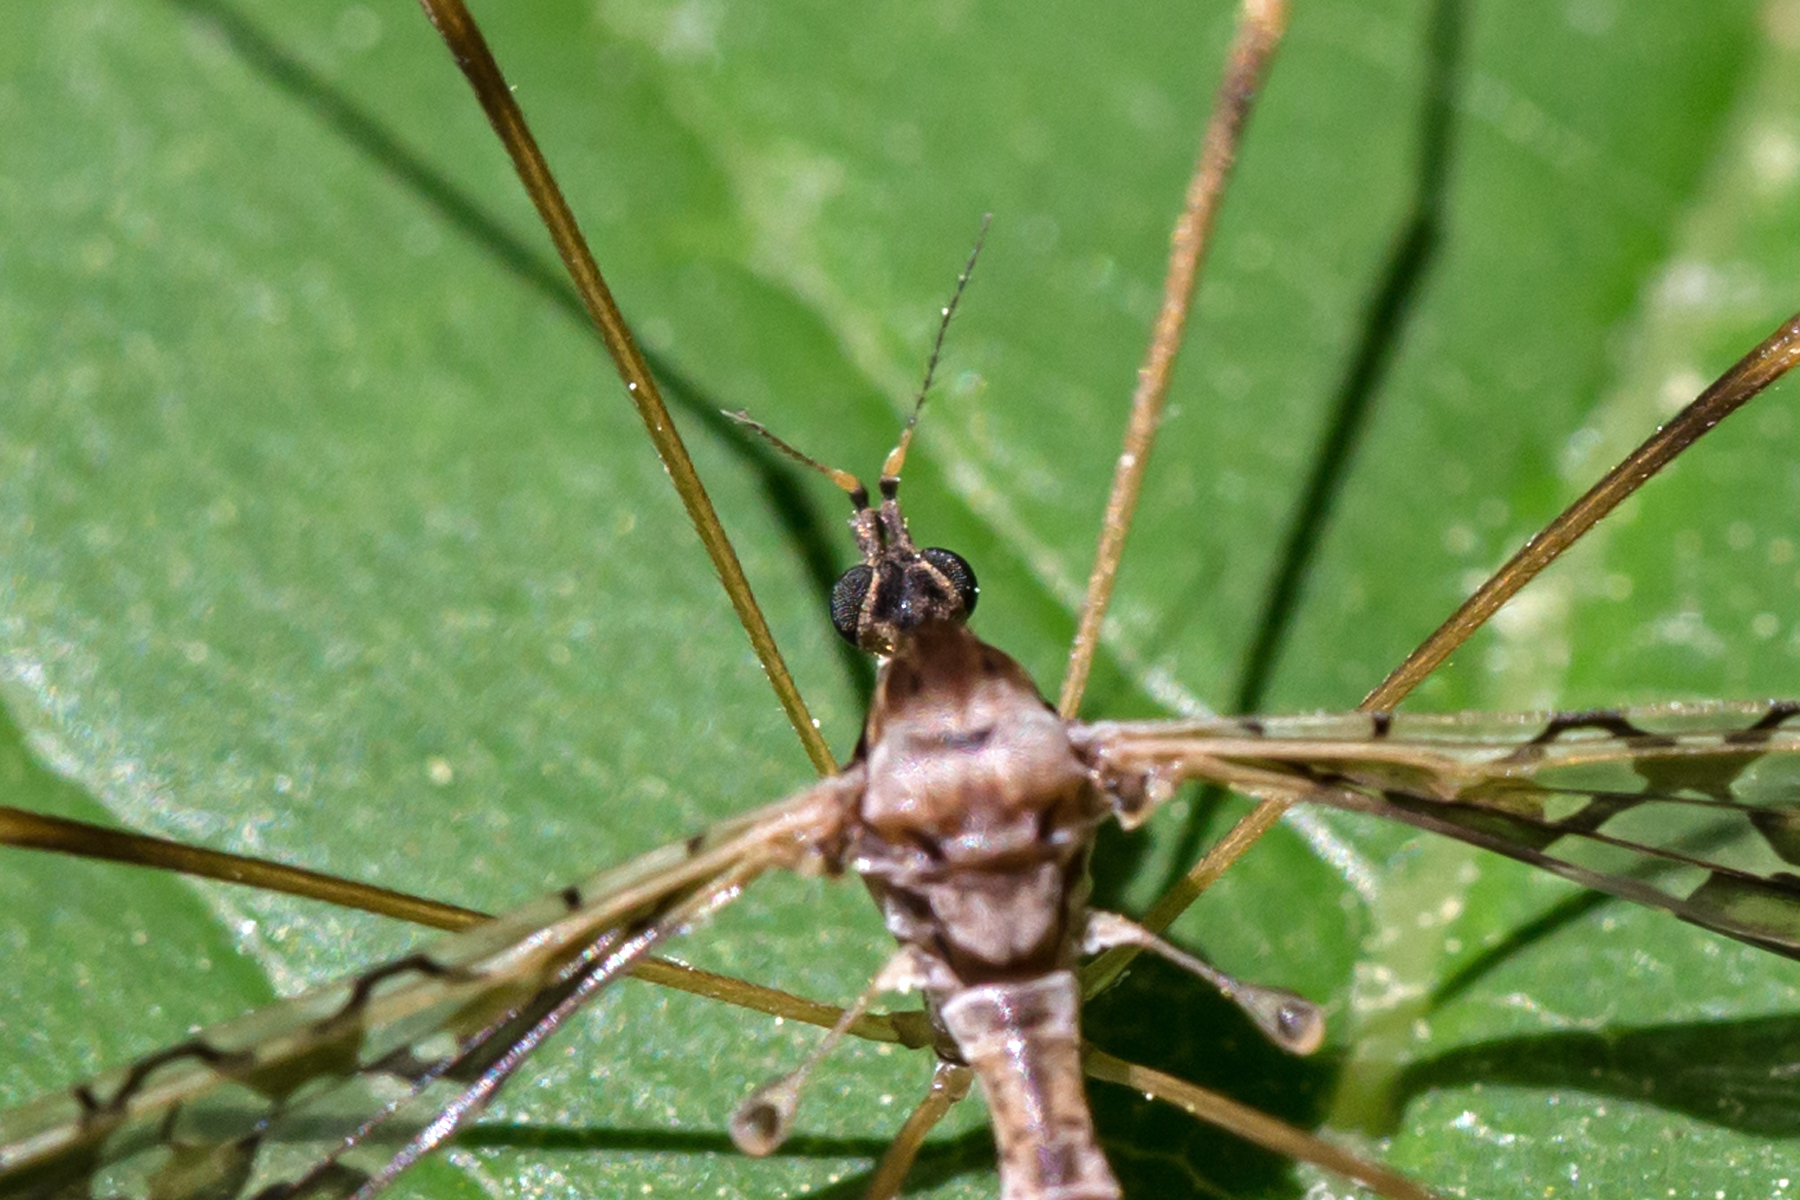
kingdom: Animalia
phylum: Arthropoda
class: Insecta
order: Diptera
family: Limoniidae
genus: Epiphragma
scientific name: Epiphragma solatrix
